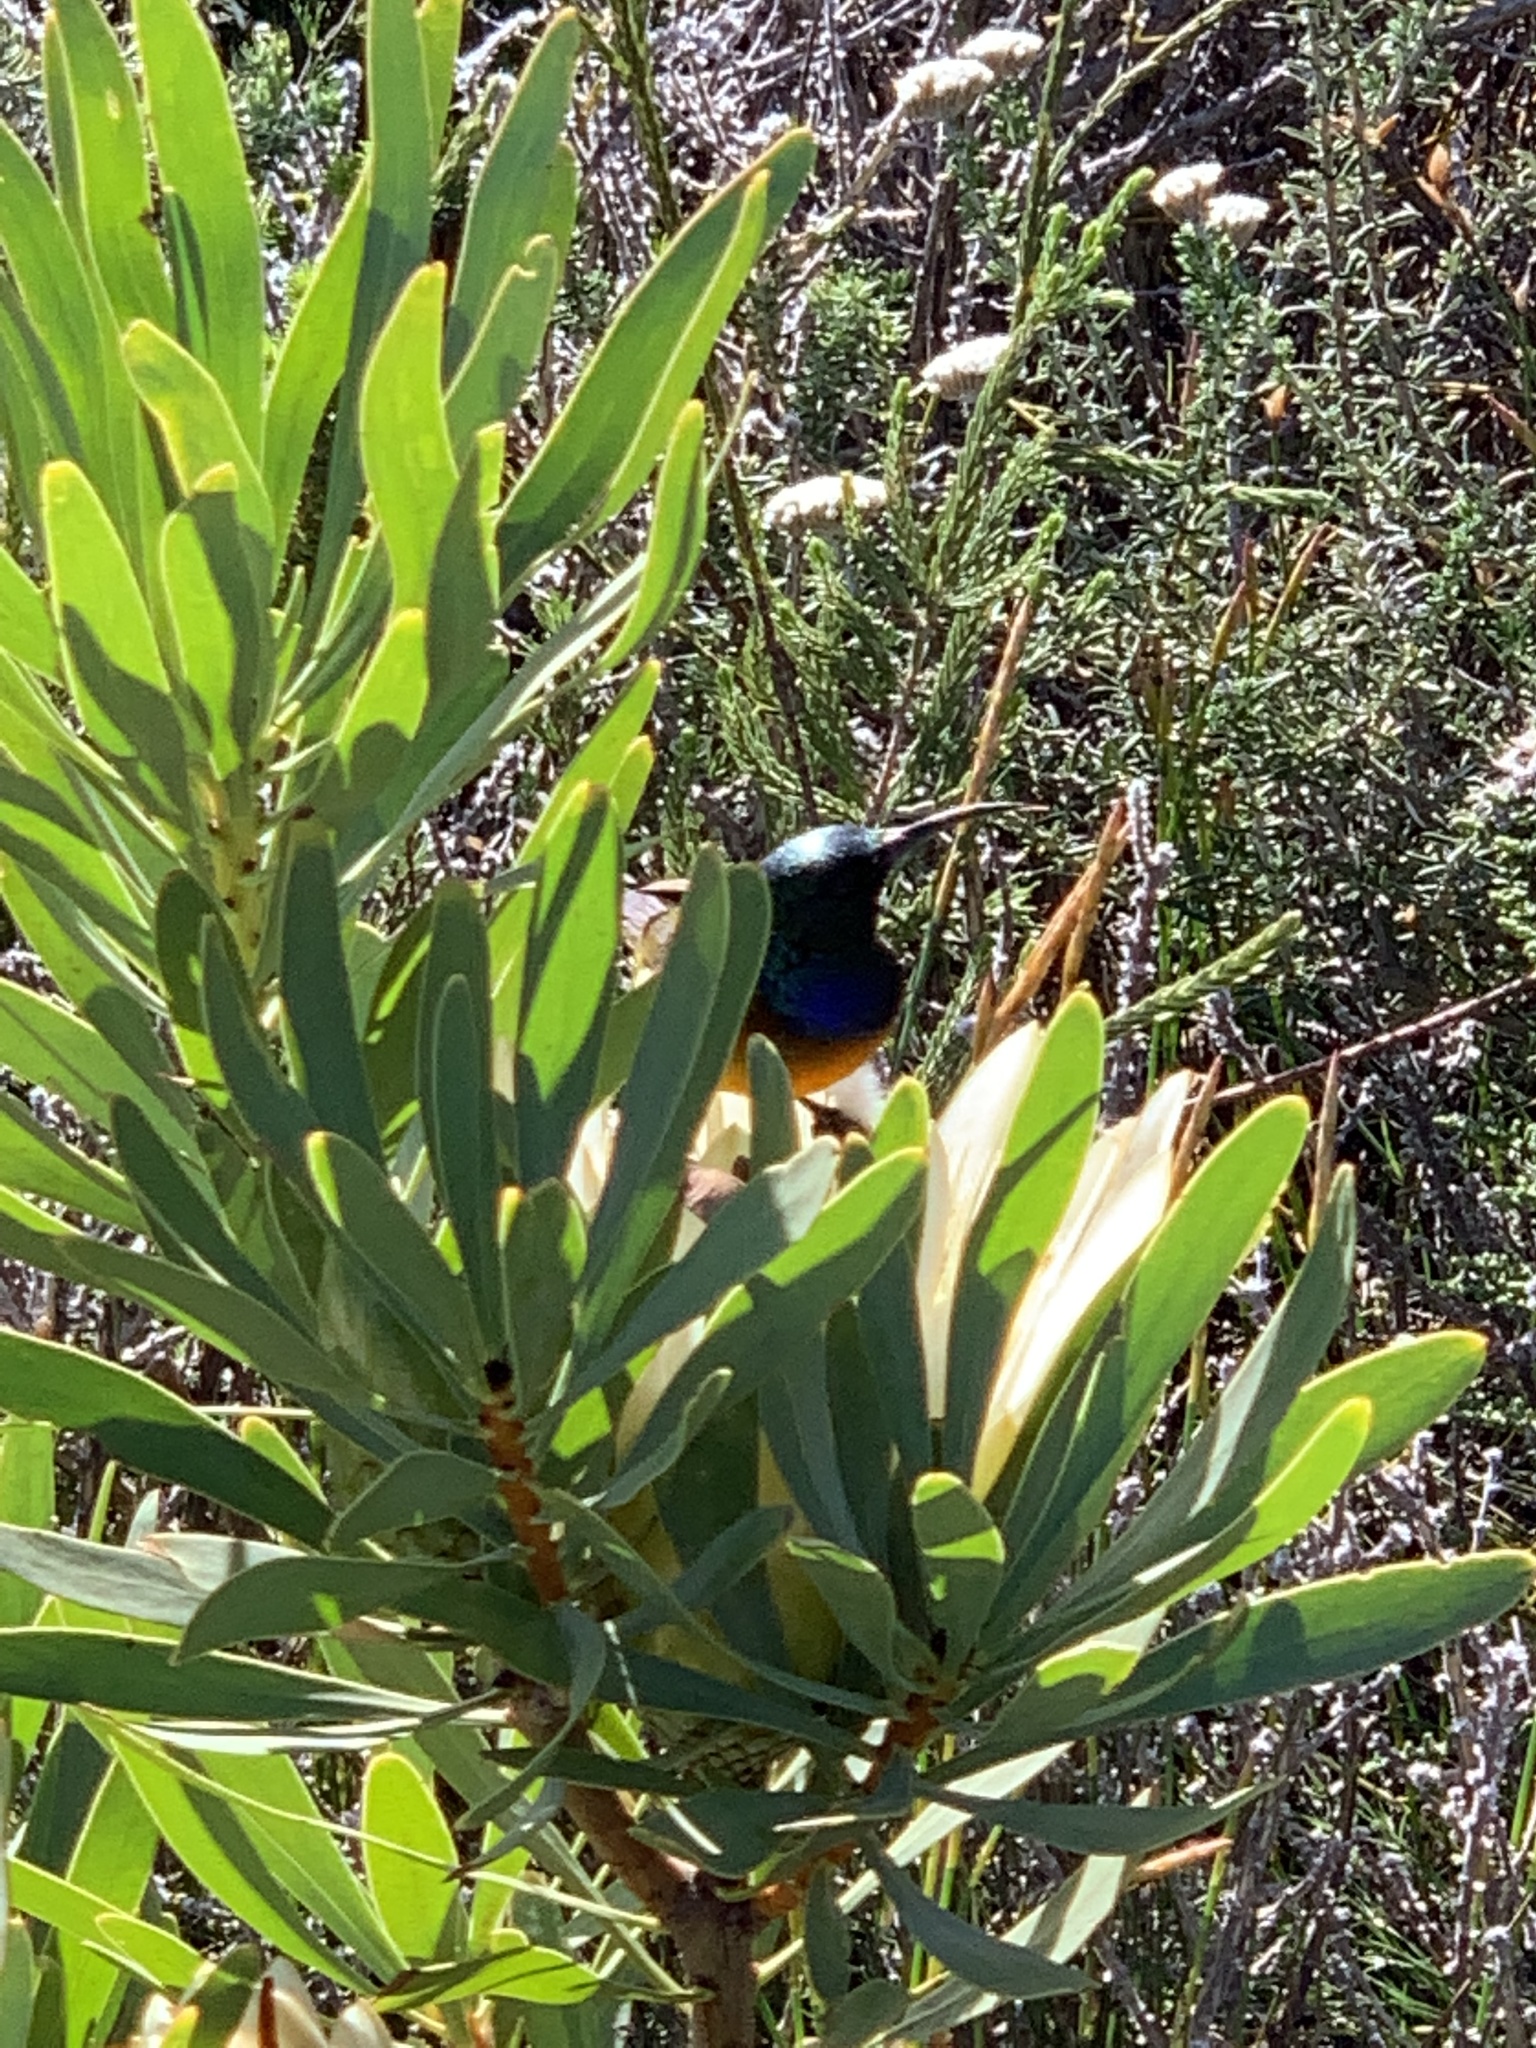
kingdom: Animalia
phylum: Chordata
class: Aves
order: Passeriformes
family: Nectariniidae
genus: Anthobaphes
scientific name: Anthobaphes violacea
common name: Orange-breasted sunbird
